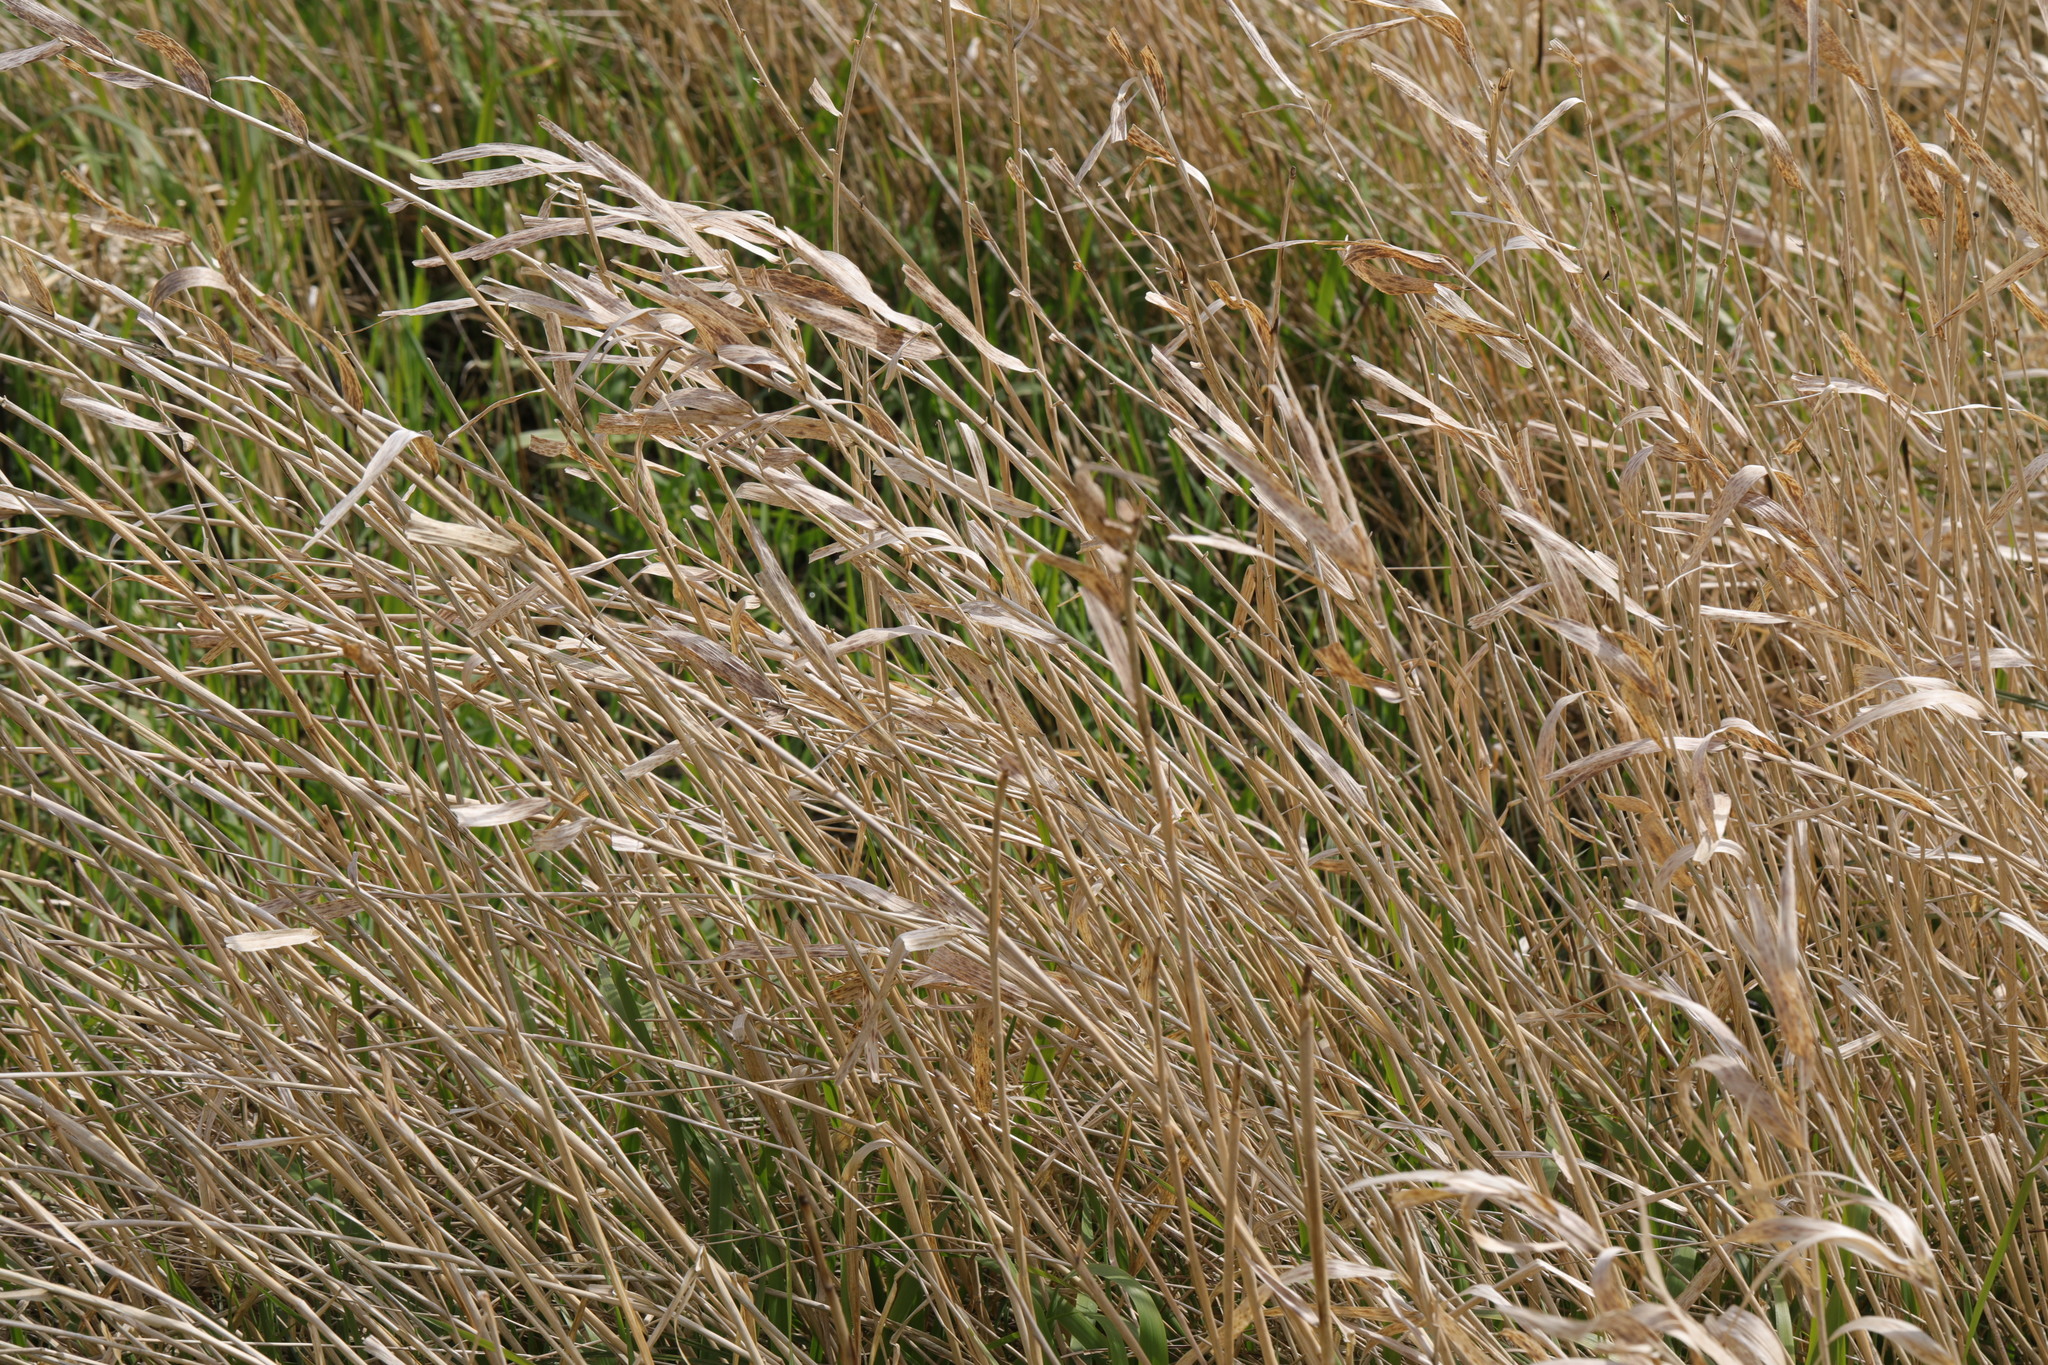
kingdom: Plantae
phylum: Tracheophyta
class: Liliopsida
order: Poales
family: Poaceae
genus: Phalaris
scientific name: Phalaris arundinacea
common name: Reed canary-grass
